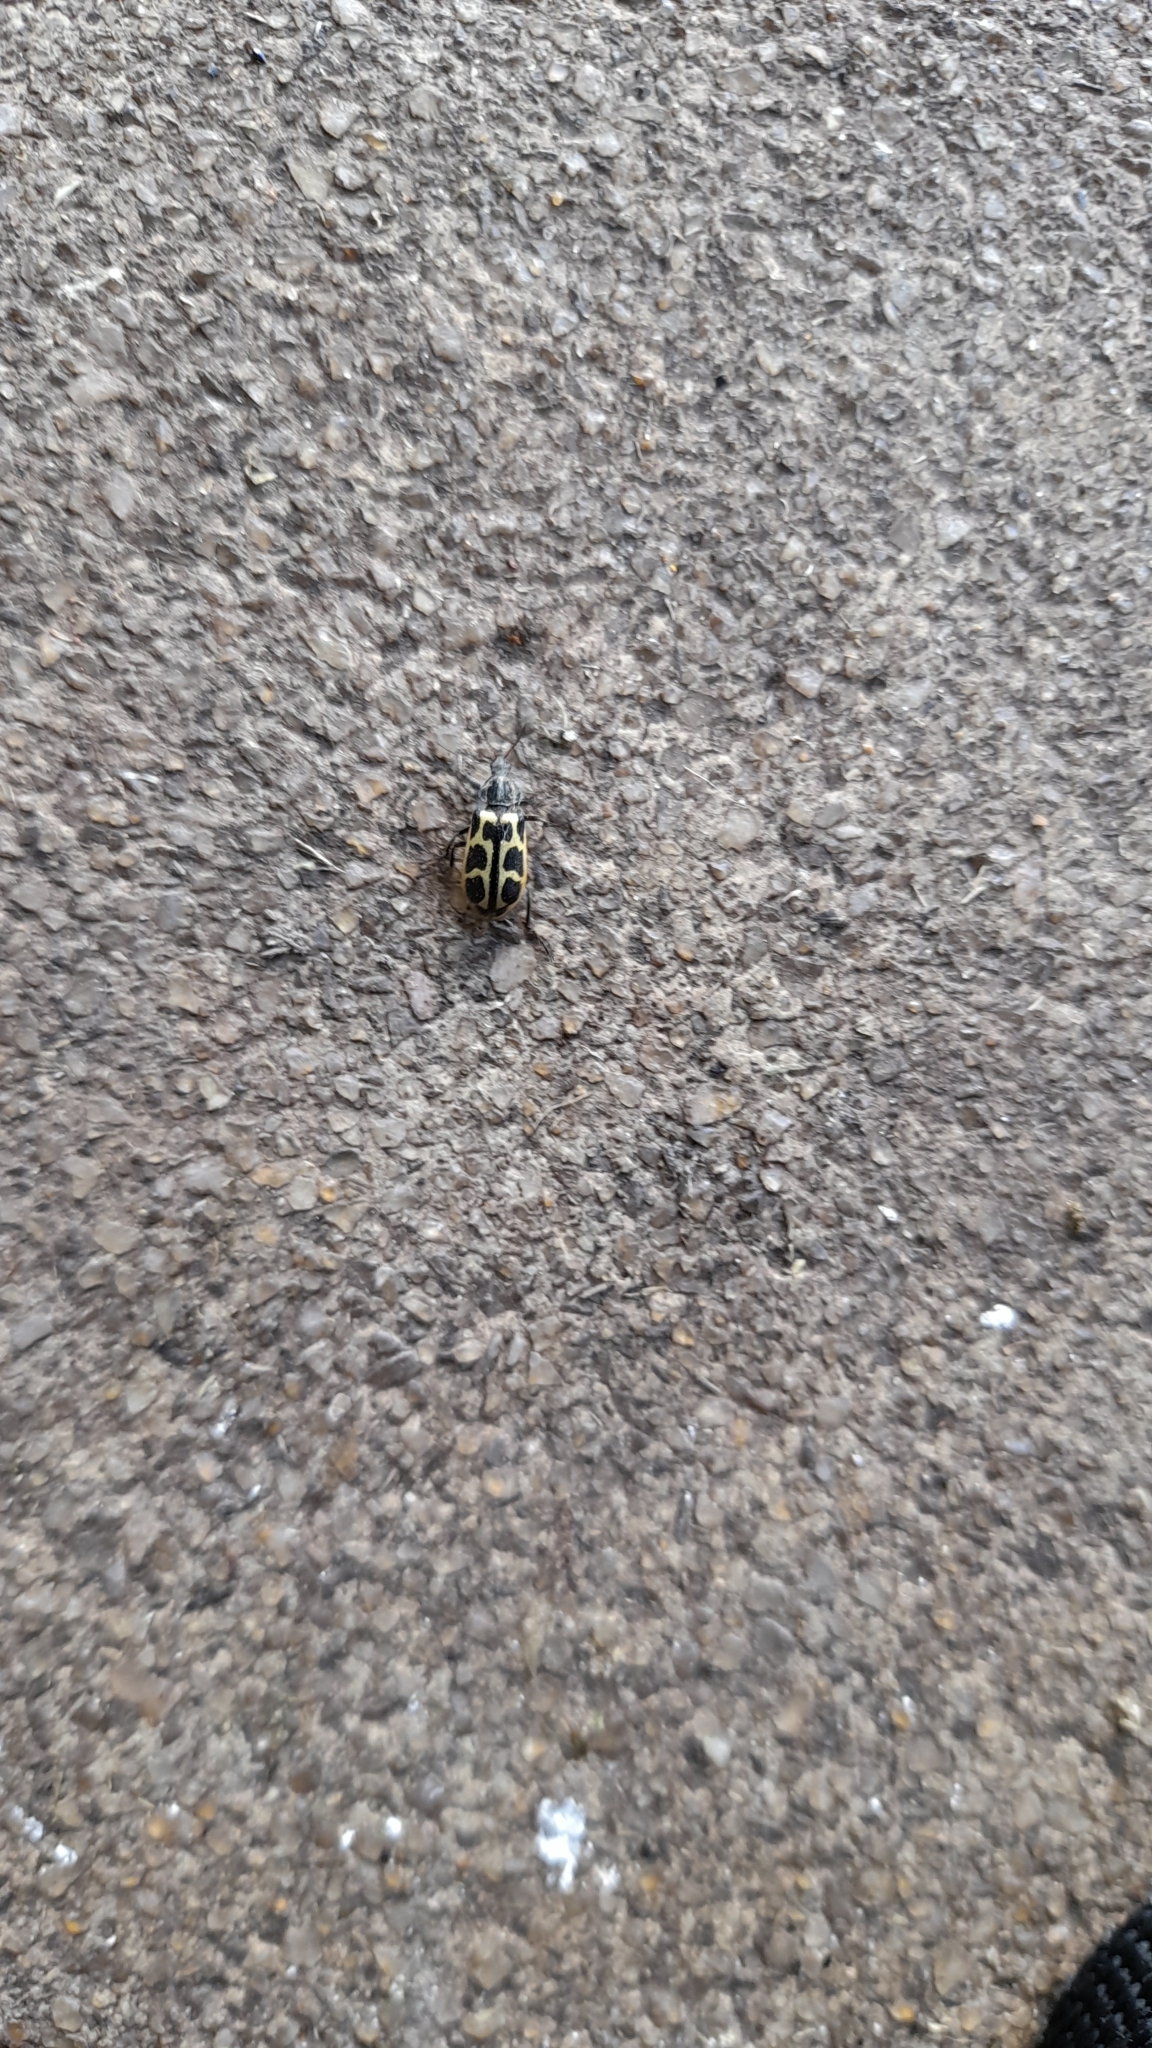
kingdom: Animalia
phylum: Arthropoda
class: Insecta
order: Coleoptera
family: Melyridae
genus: Astylus
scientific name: Astylus atromaculatus
